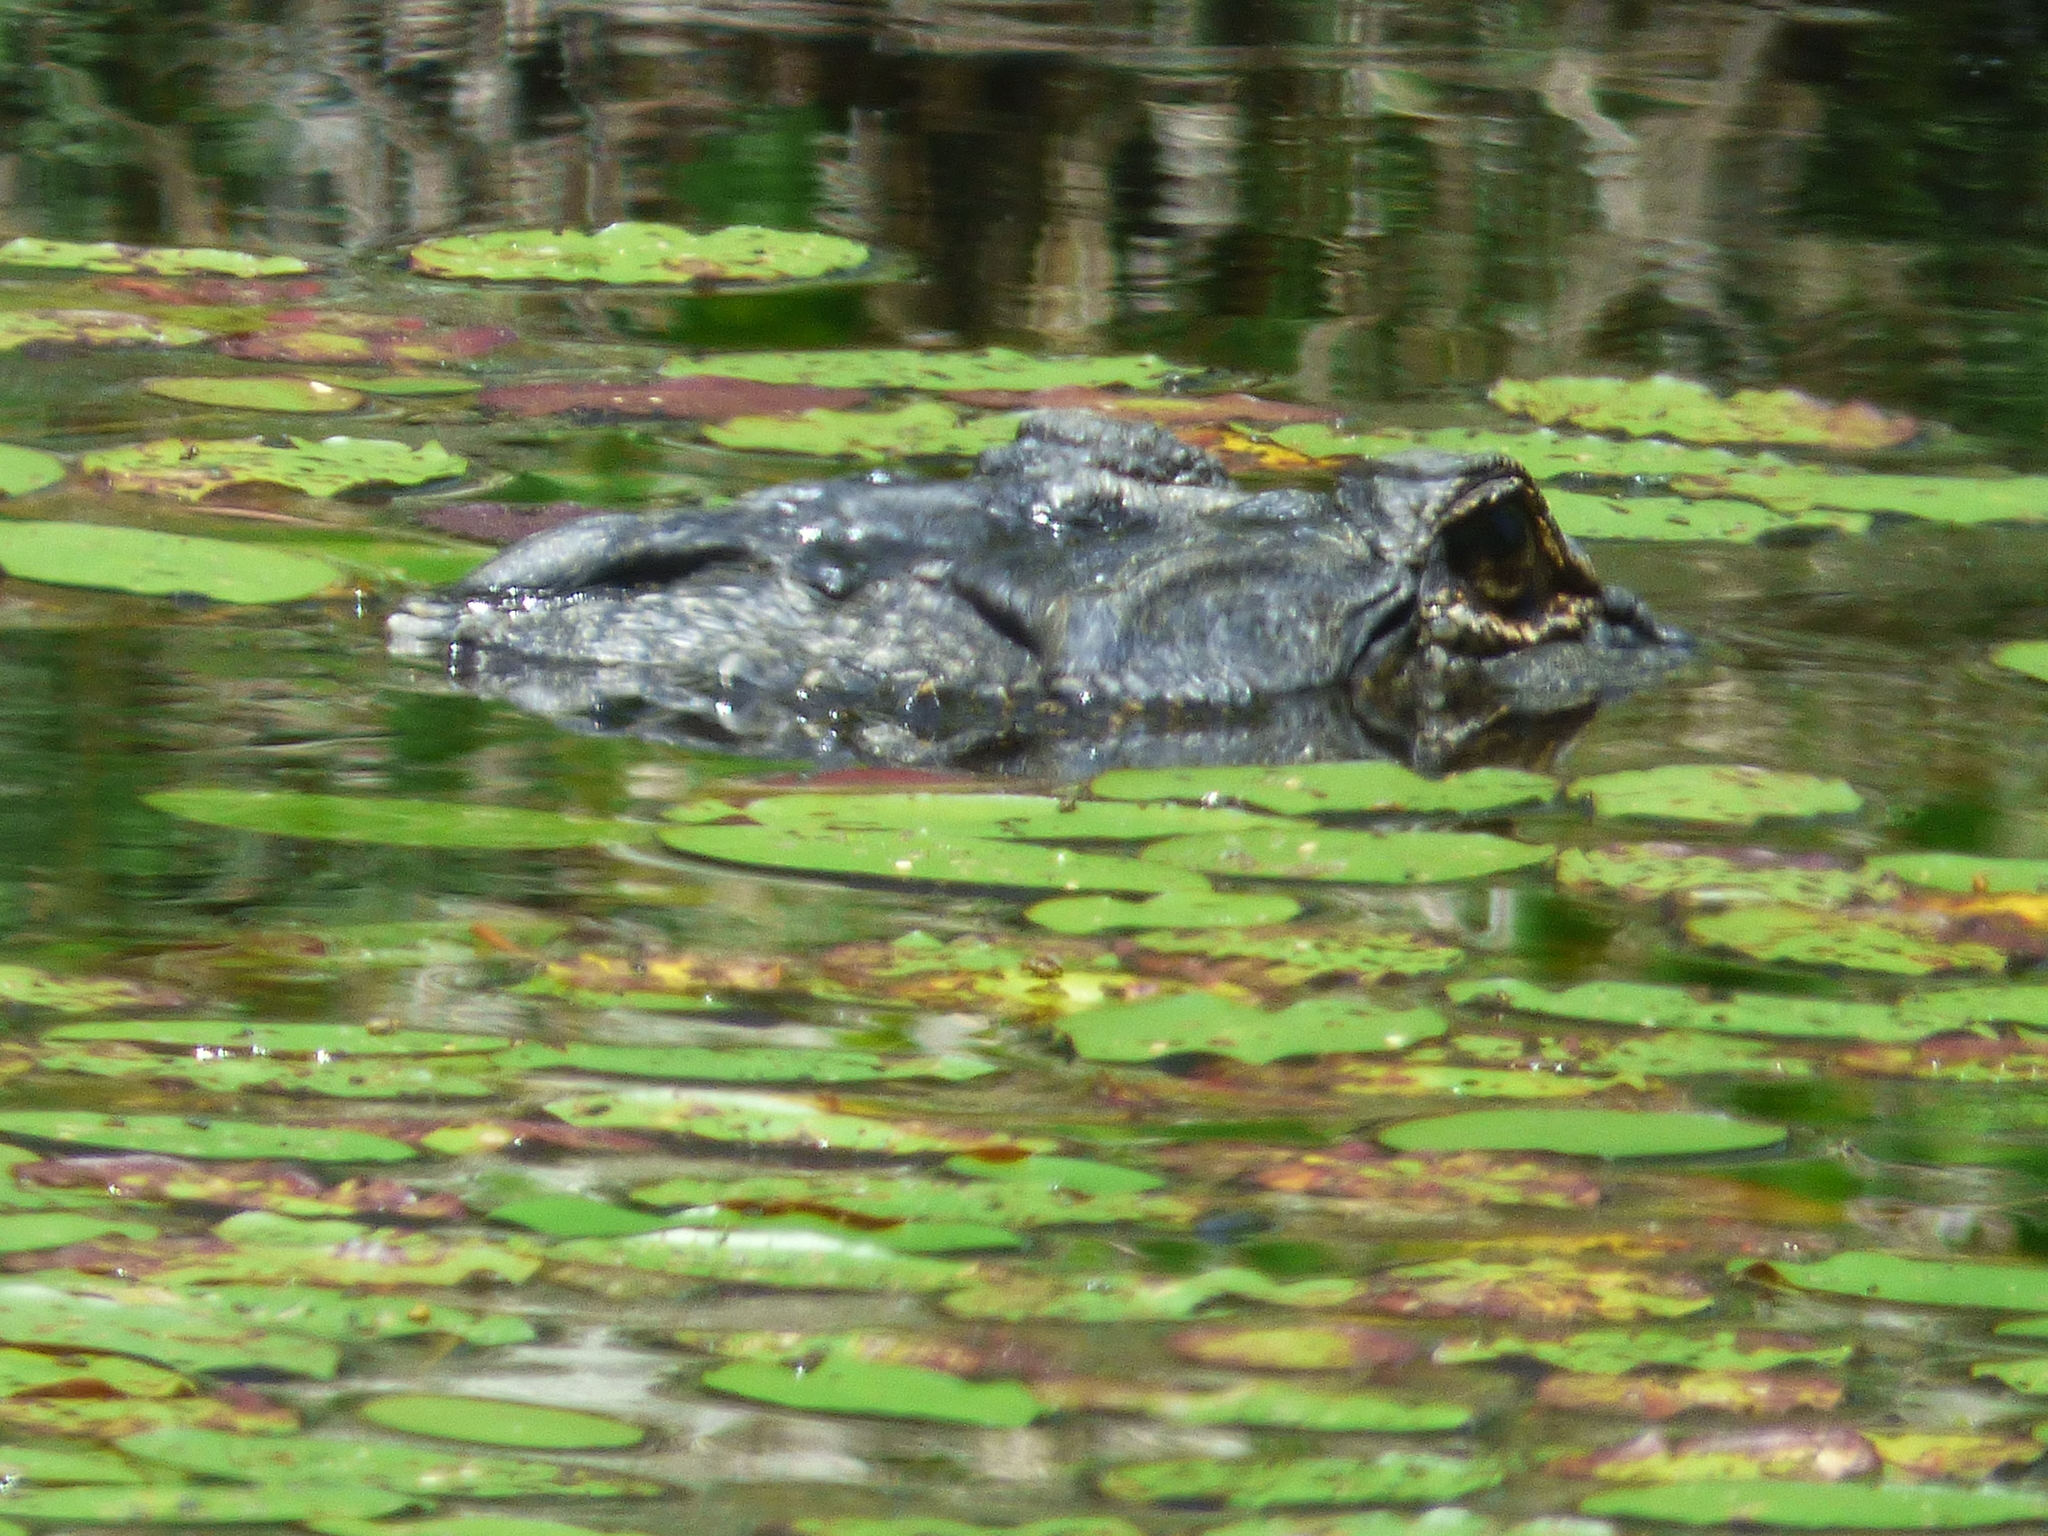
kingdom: Animalia
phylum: Chordata
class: Crocodylia
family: Alligatoridae
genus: Alligator
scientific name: Alligator mississippiensis
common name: American alligator
